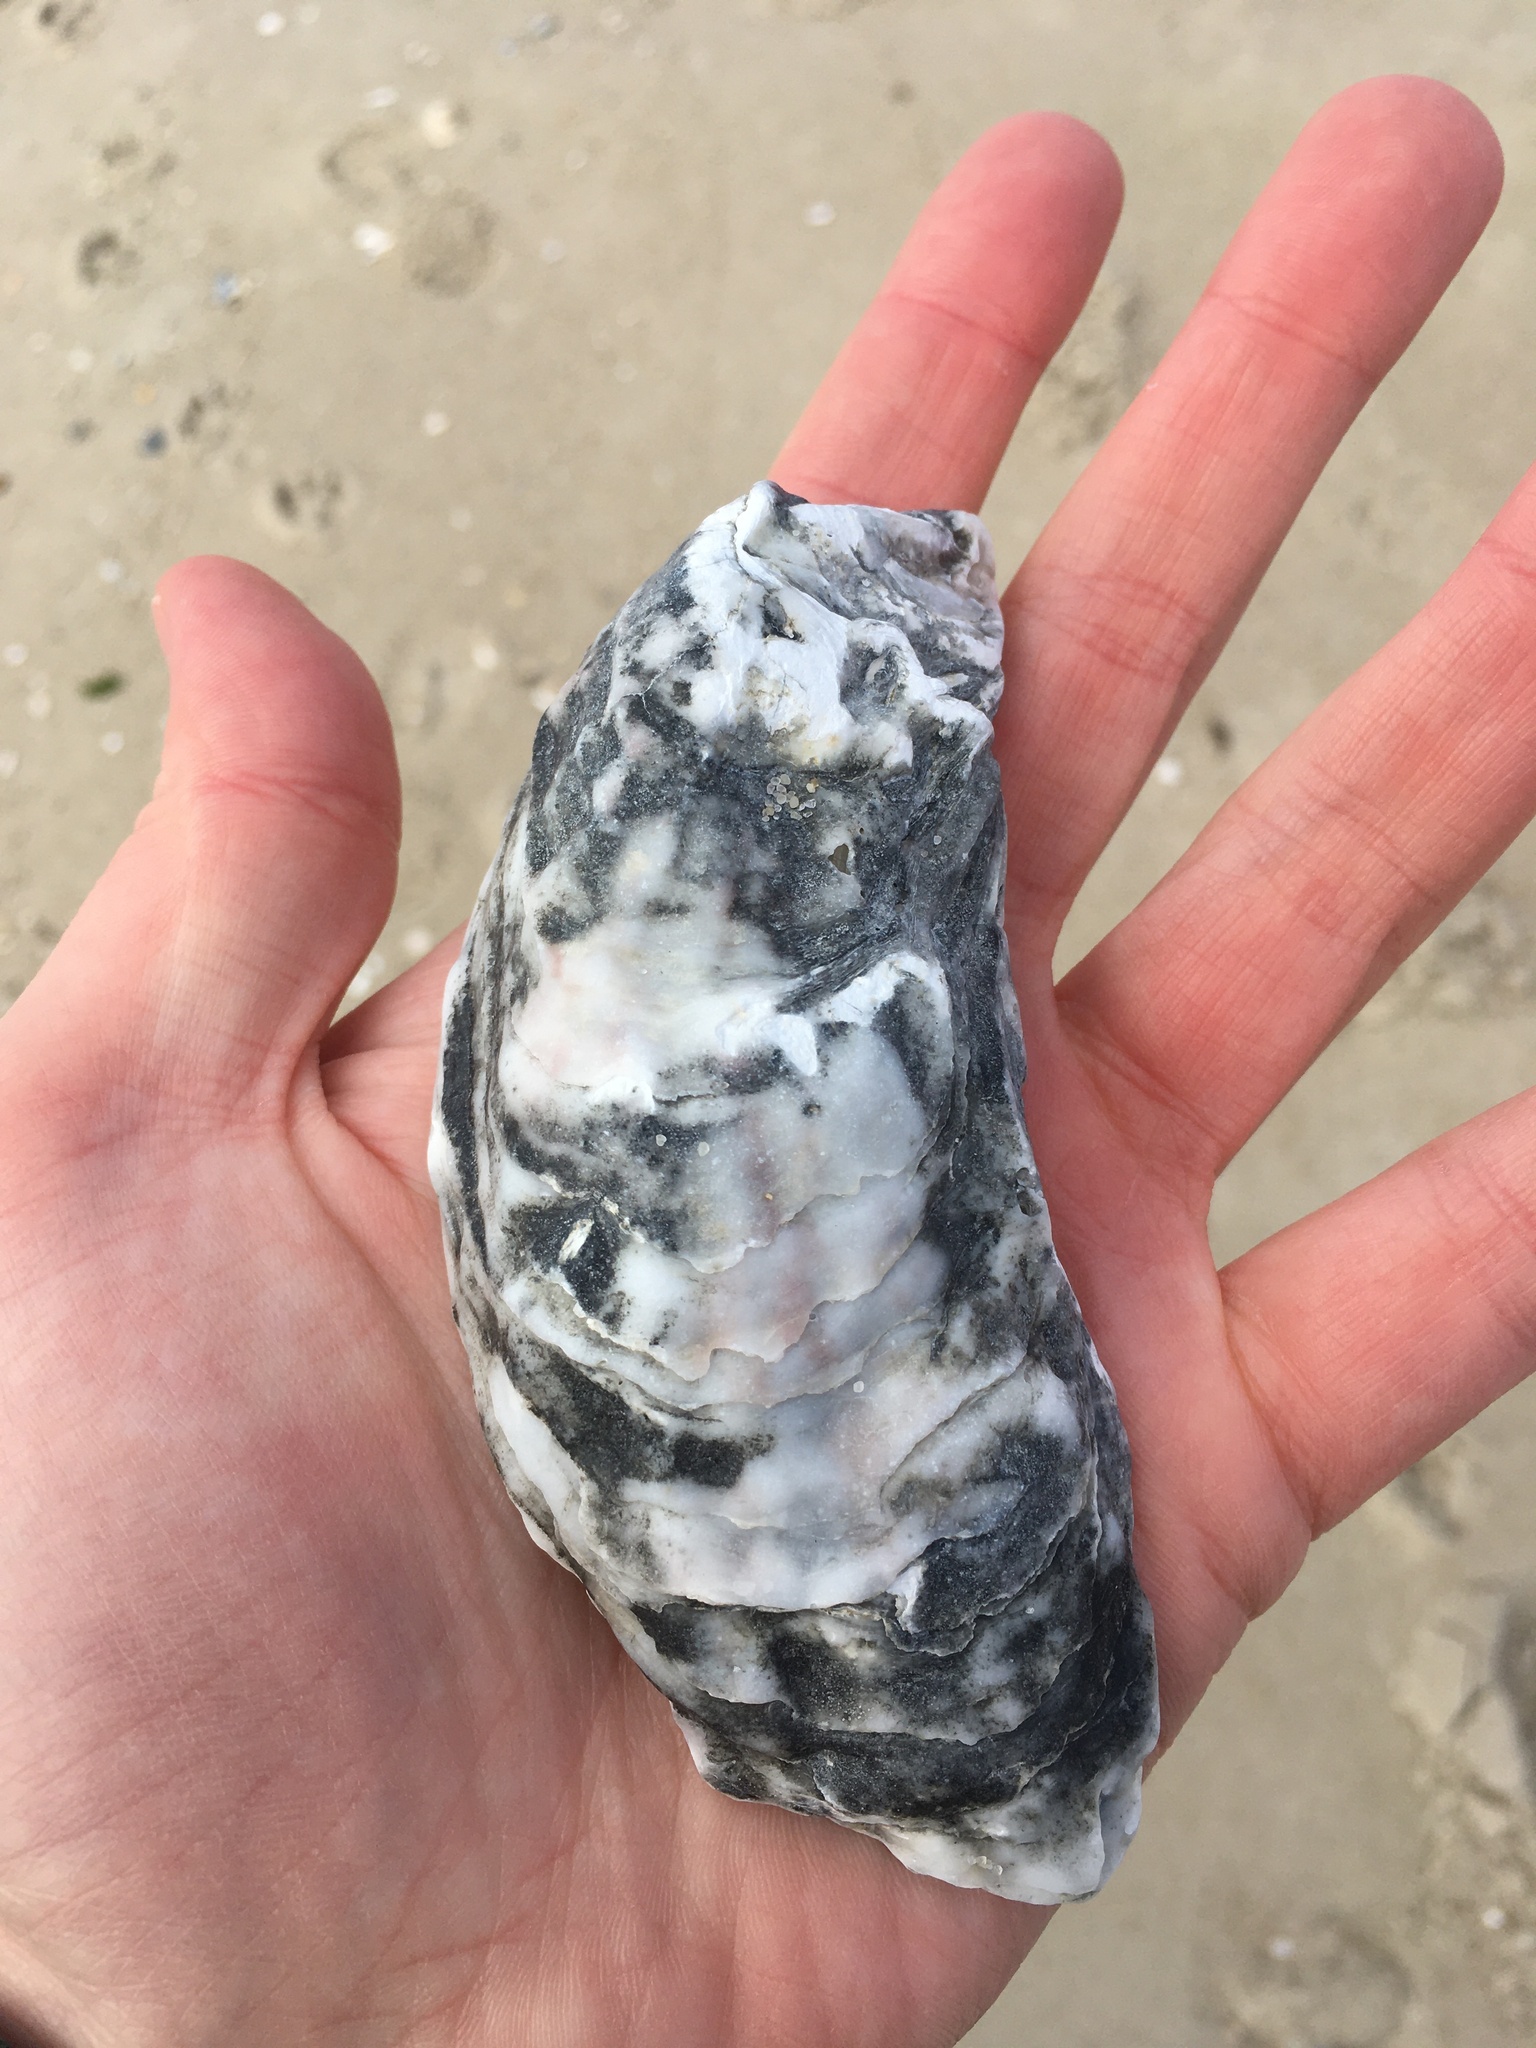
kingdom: Animalia
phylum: Mollusca
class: Bivalvia
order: Ostreida
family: Ostreidae
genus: Crassostrea
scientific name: Crassostrea virginica
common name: American oyster
